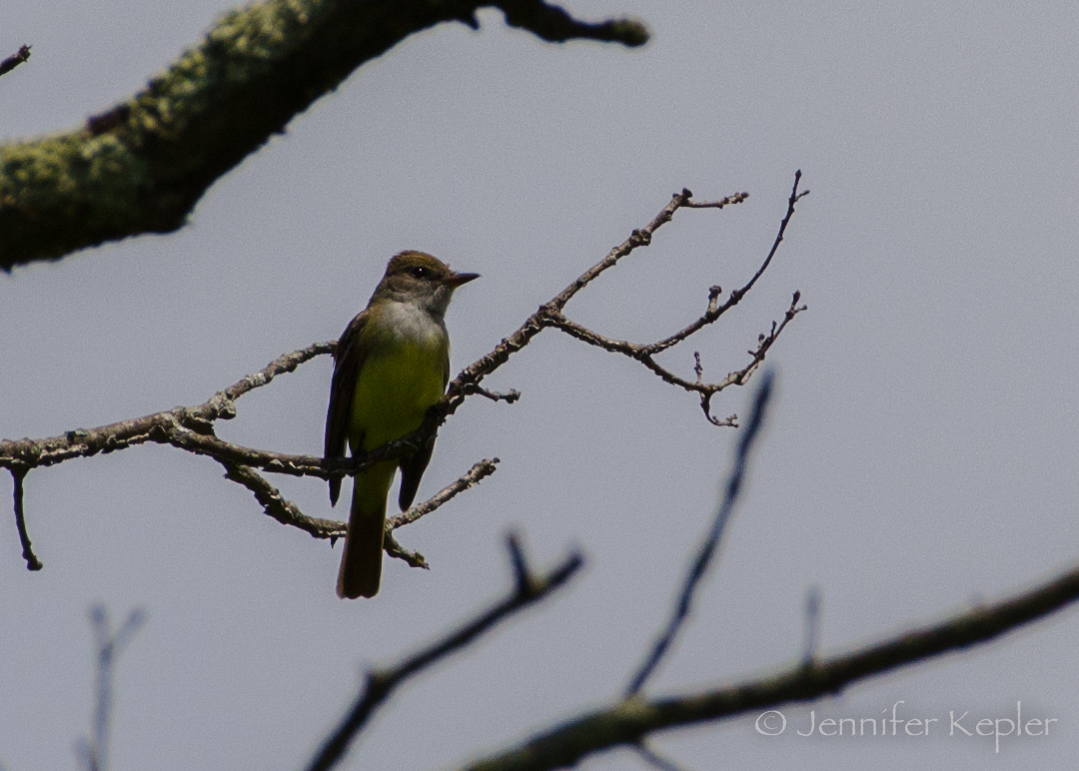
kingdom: Animalia
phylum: Chordata
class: Aves
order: Passeriformes
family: Tyrannidae
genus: Myiarchus
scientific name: Myiarchus crinitus
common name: Great crested flycatcher
